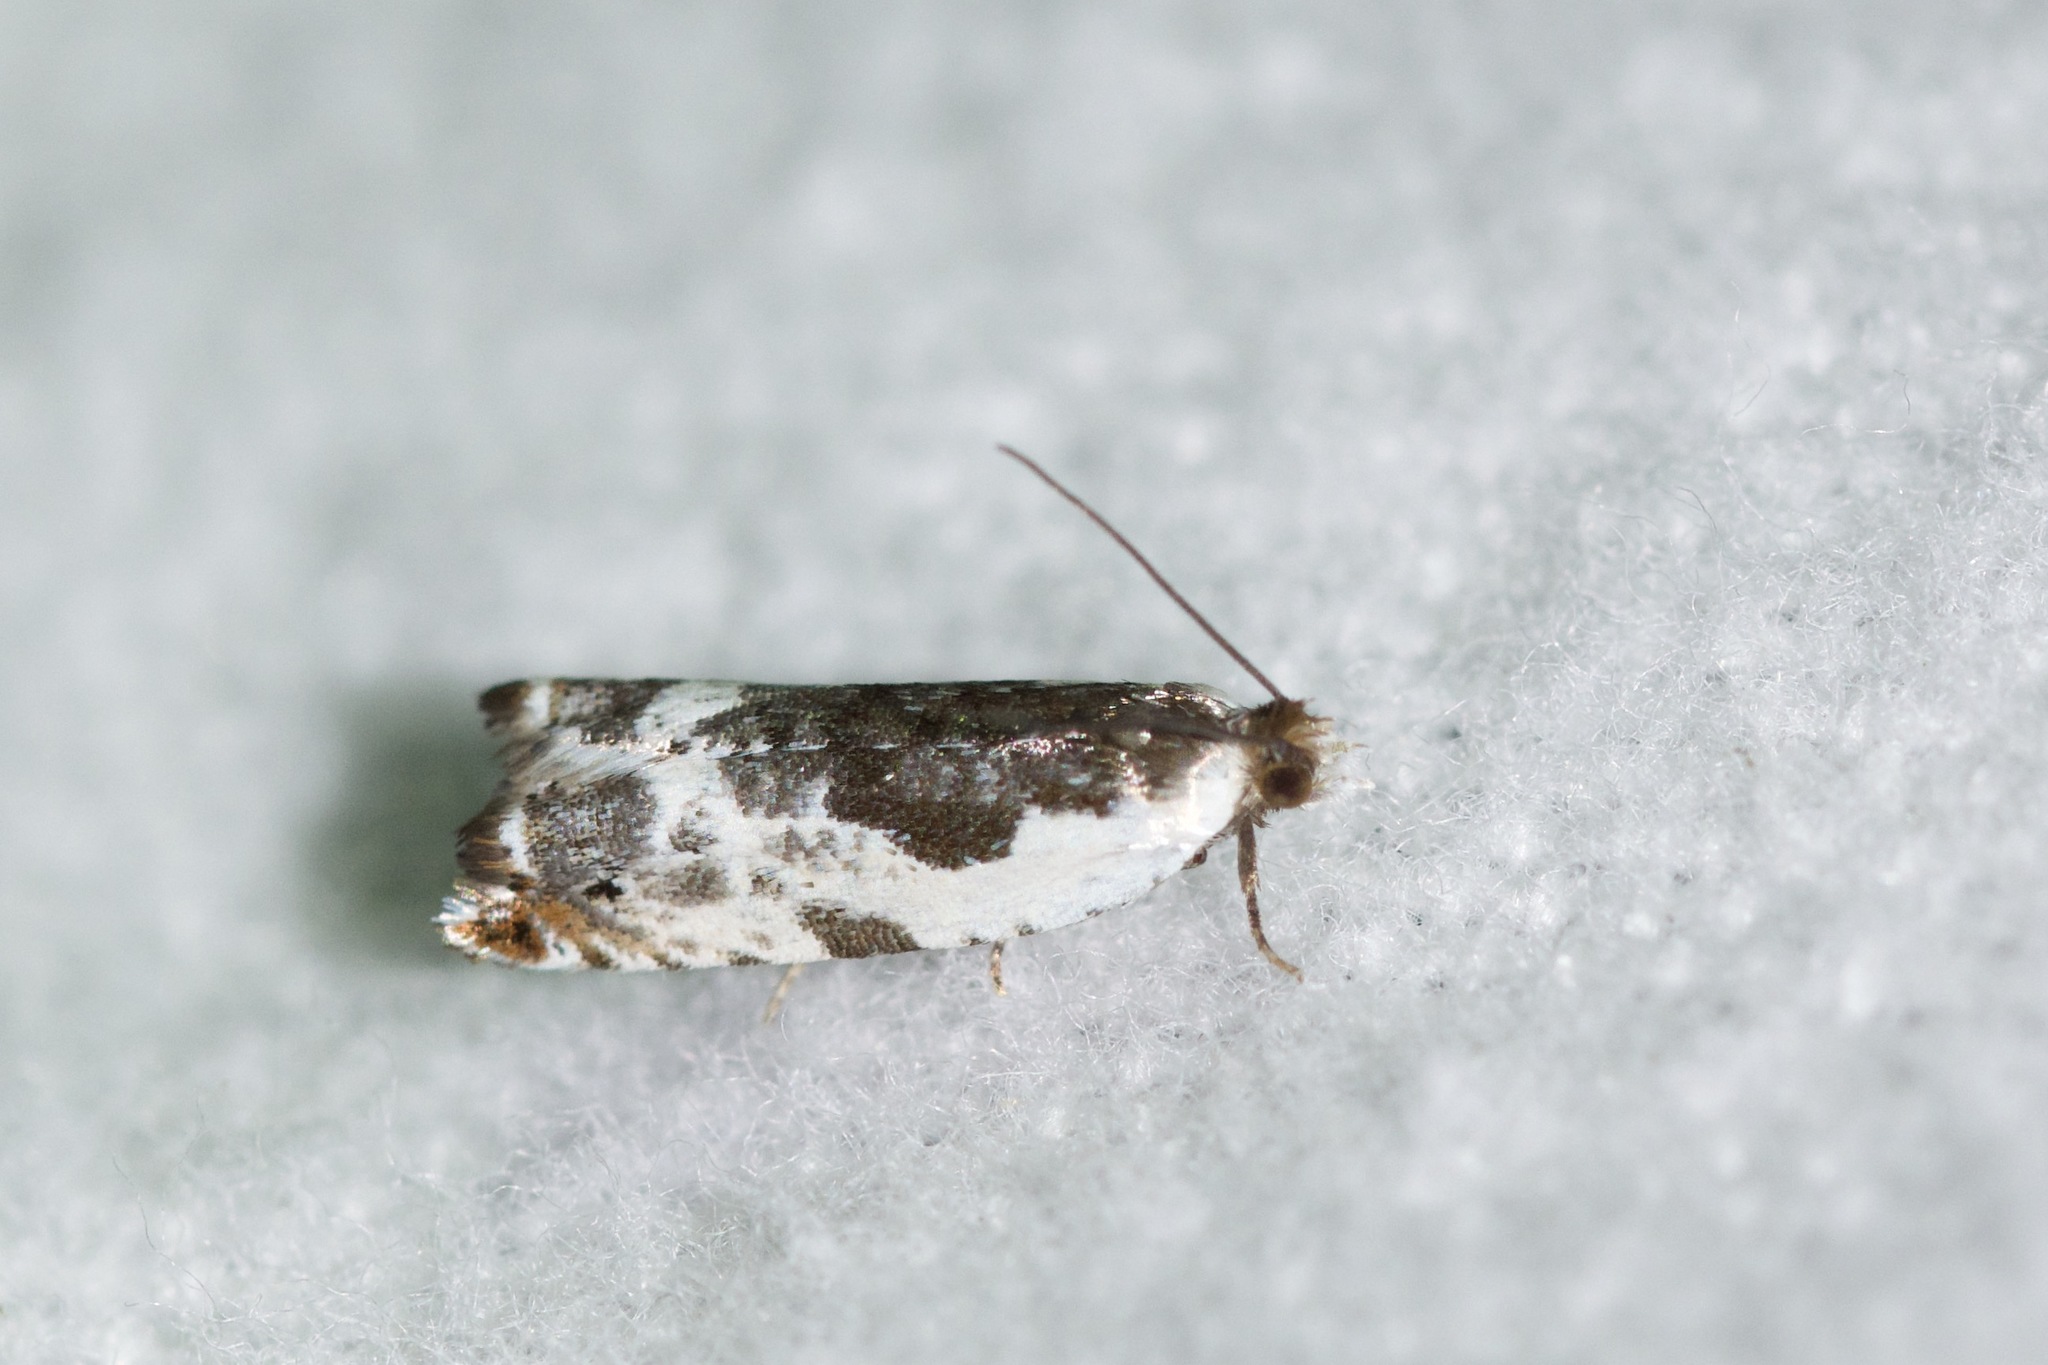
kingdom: Animalia
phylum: Arthropoda
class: Insecta
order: Lepidoptera
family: Tortricidae
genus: Ancylis
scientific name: Ancylis nubeculana
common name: Little cloud ancylis moth
